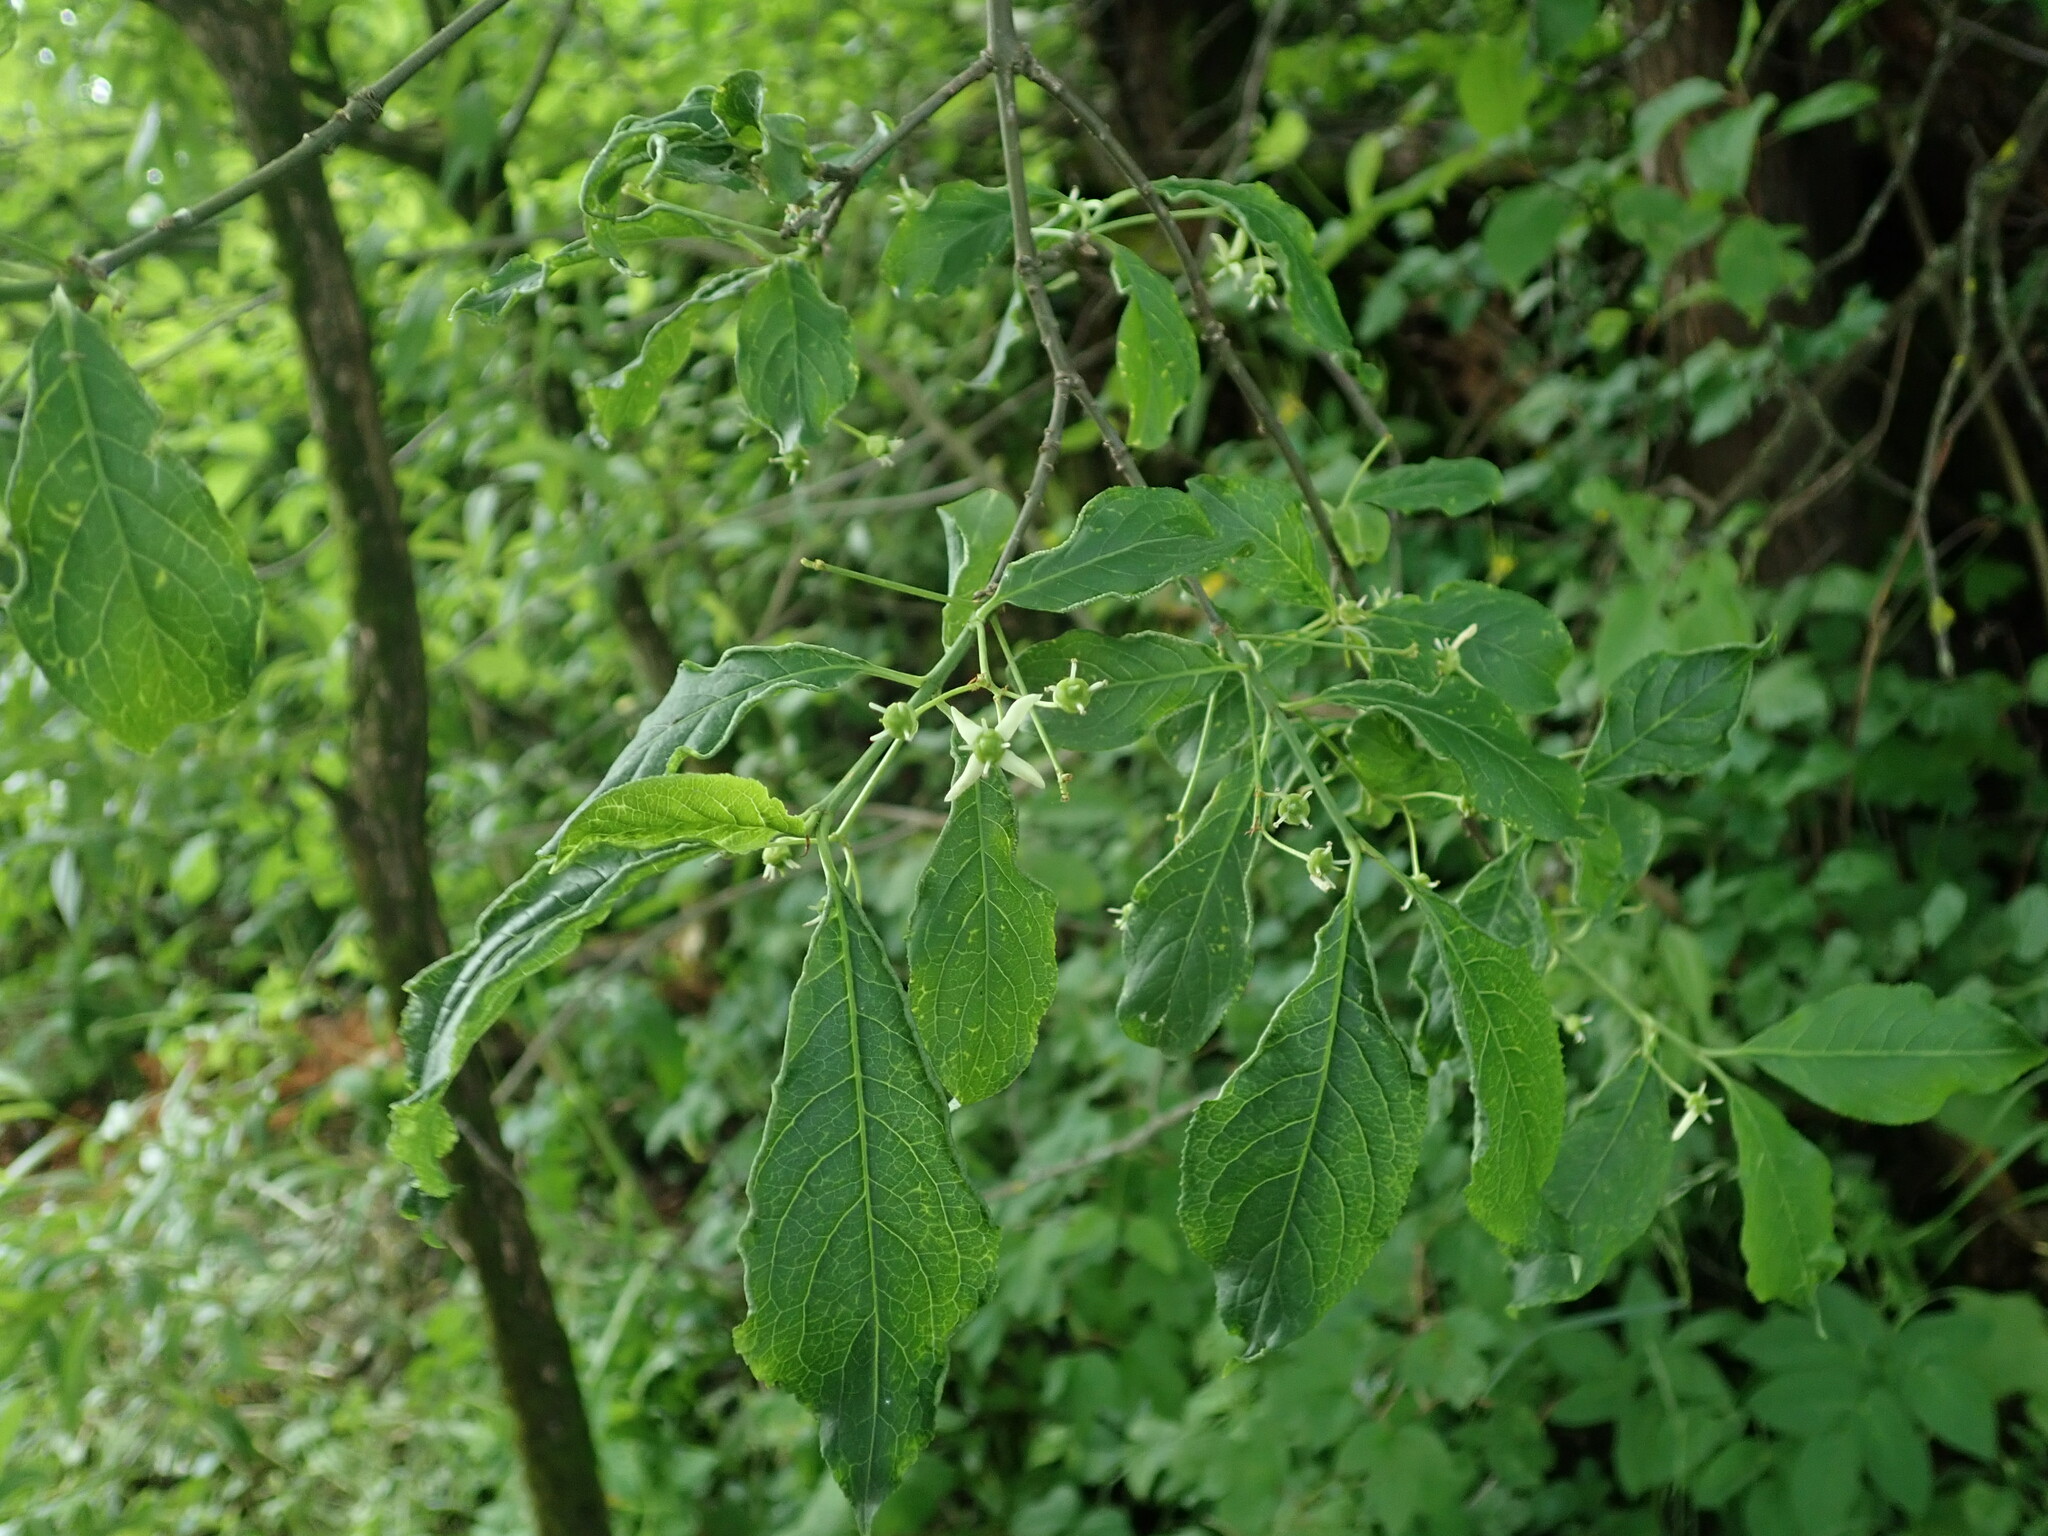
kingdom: Plantae
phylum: Tracheophyta
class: Magnoliopsida
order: Celastrales
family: Celastraceae
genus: Euonymus
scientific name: Euonymus europaeus
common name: Spindle
